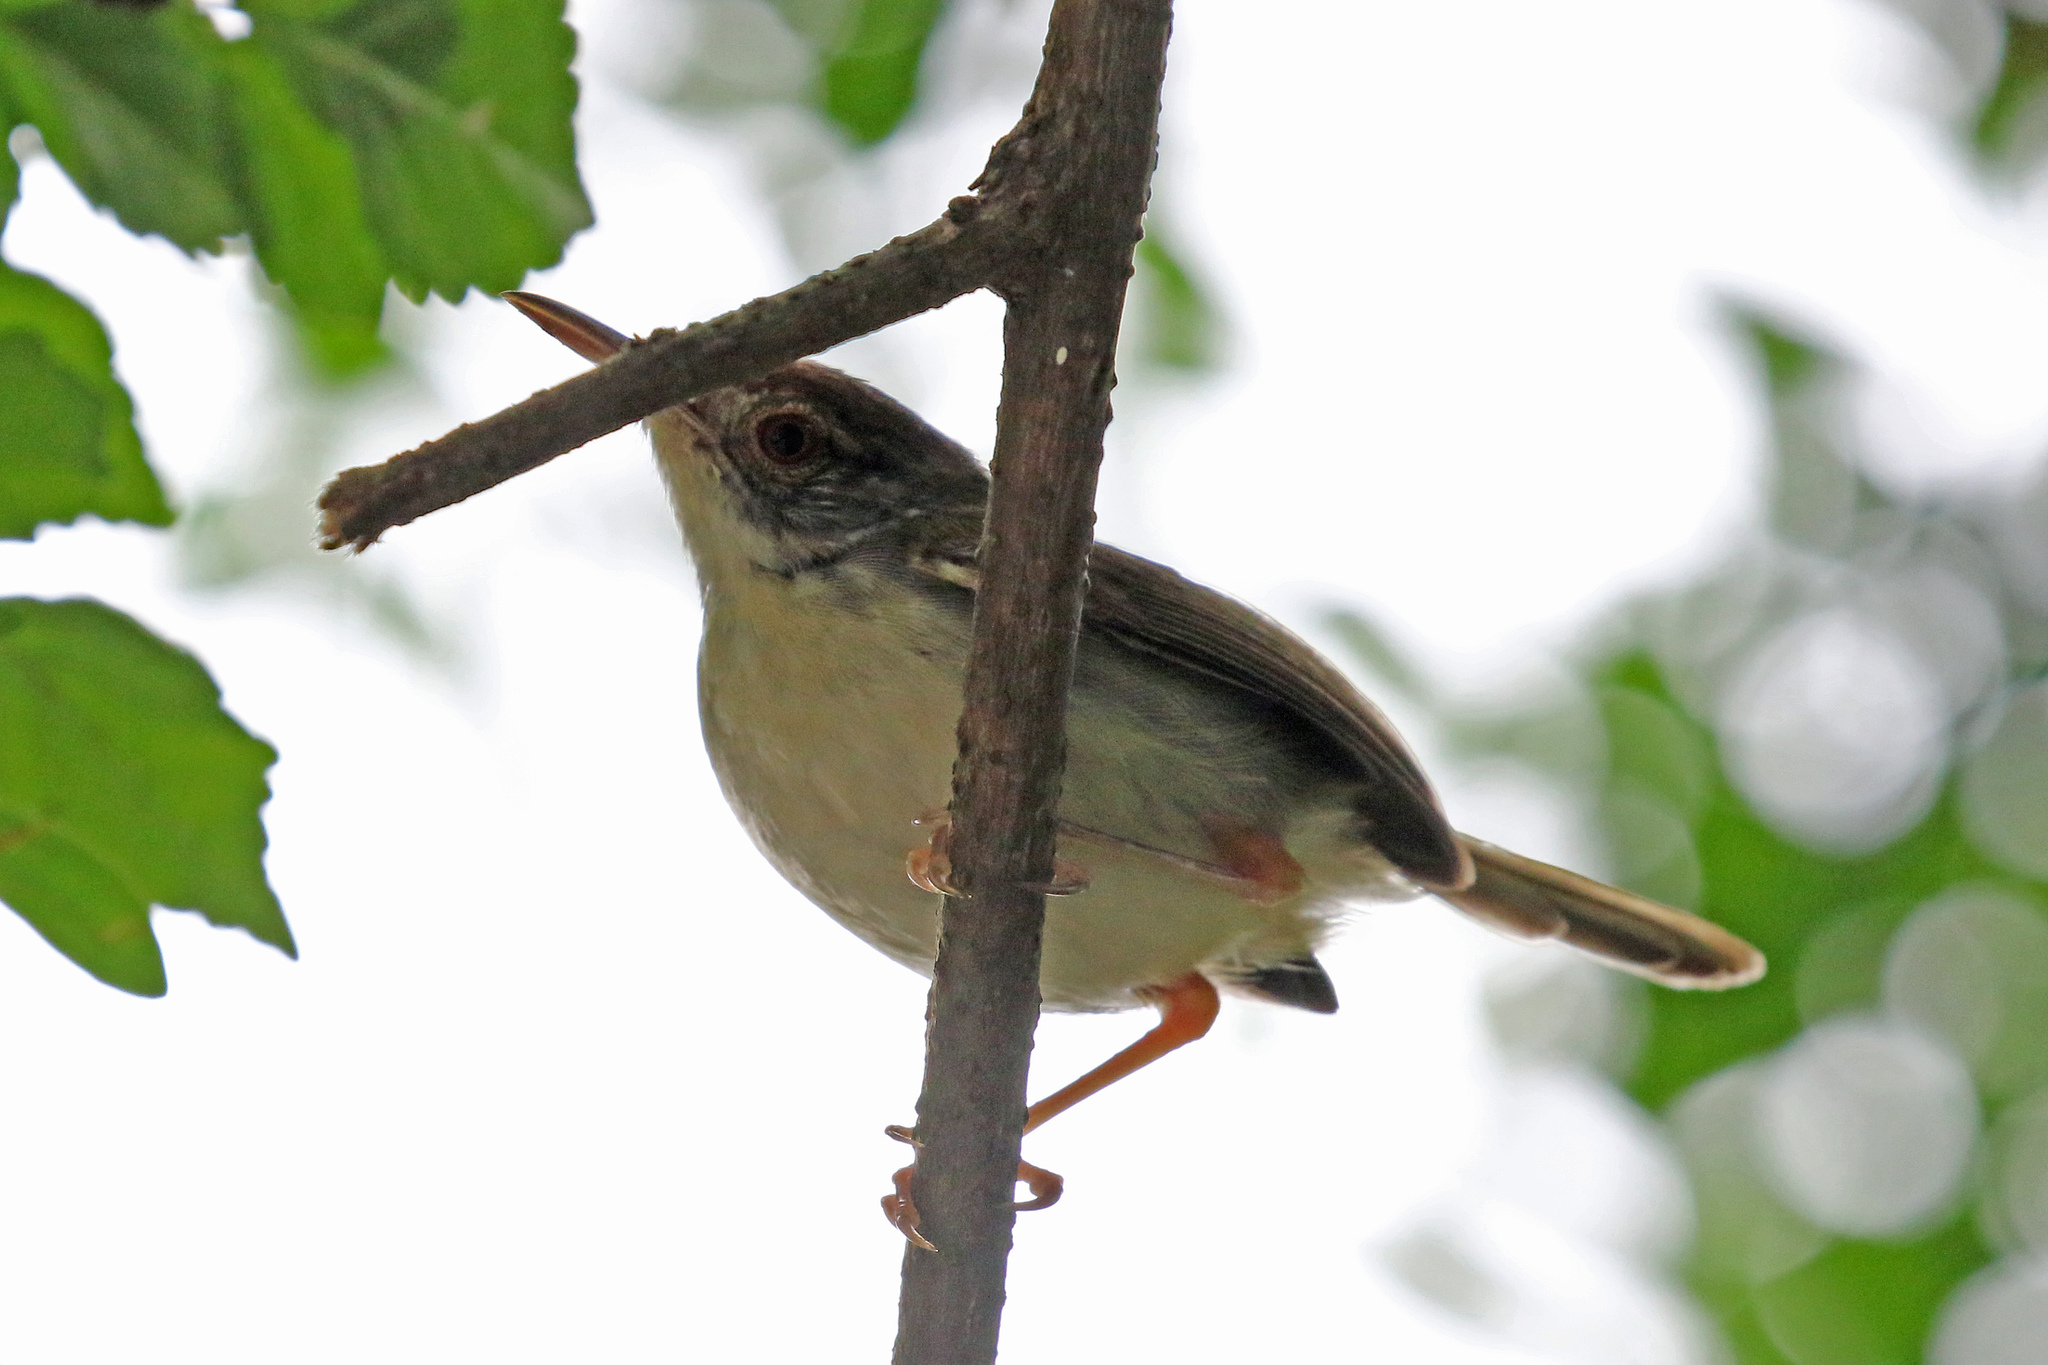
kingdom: Animalia
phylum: Chordata
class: Aves
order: Passeriformes
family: Cisticolidae
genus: Orthotomus
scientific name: Orthotomus sutorius
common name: Common tailorbird
